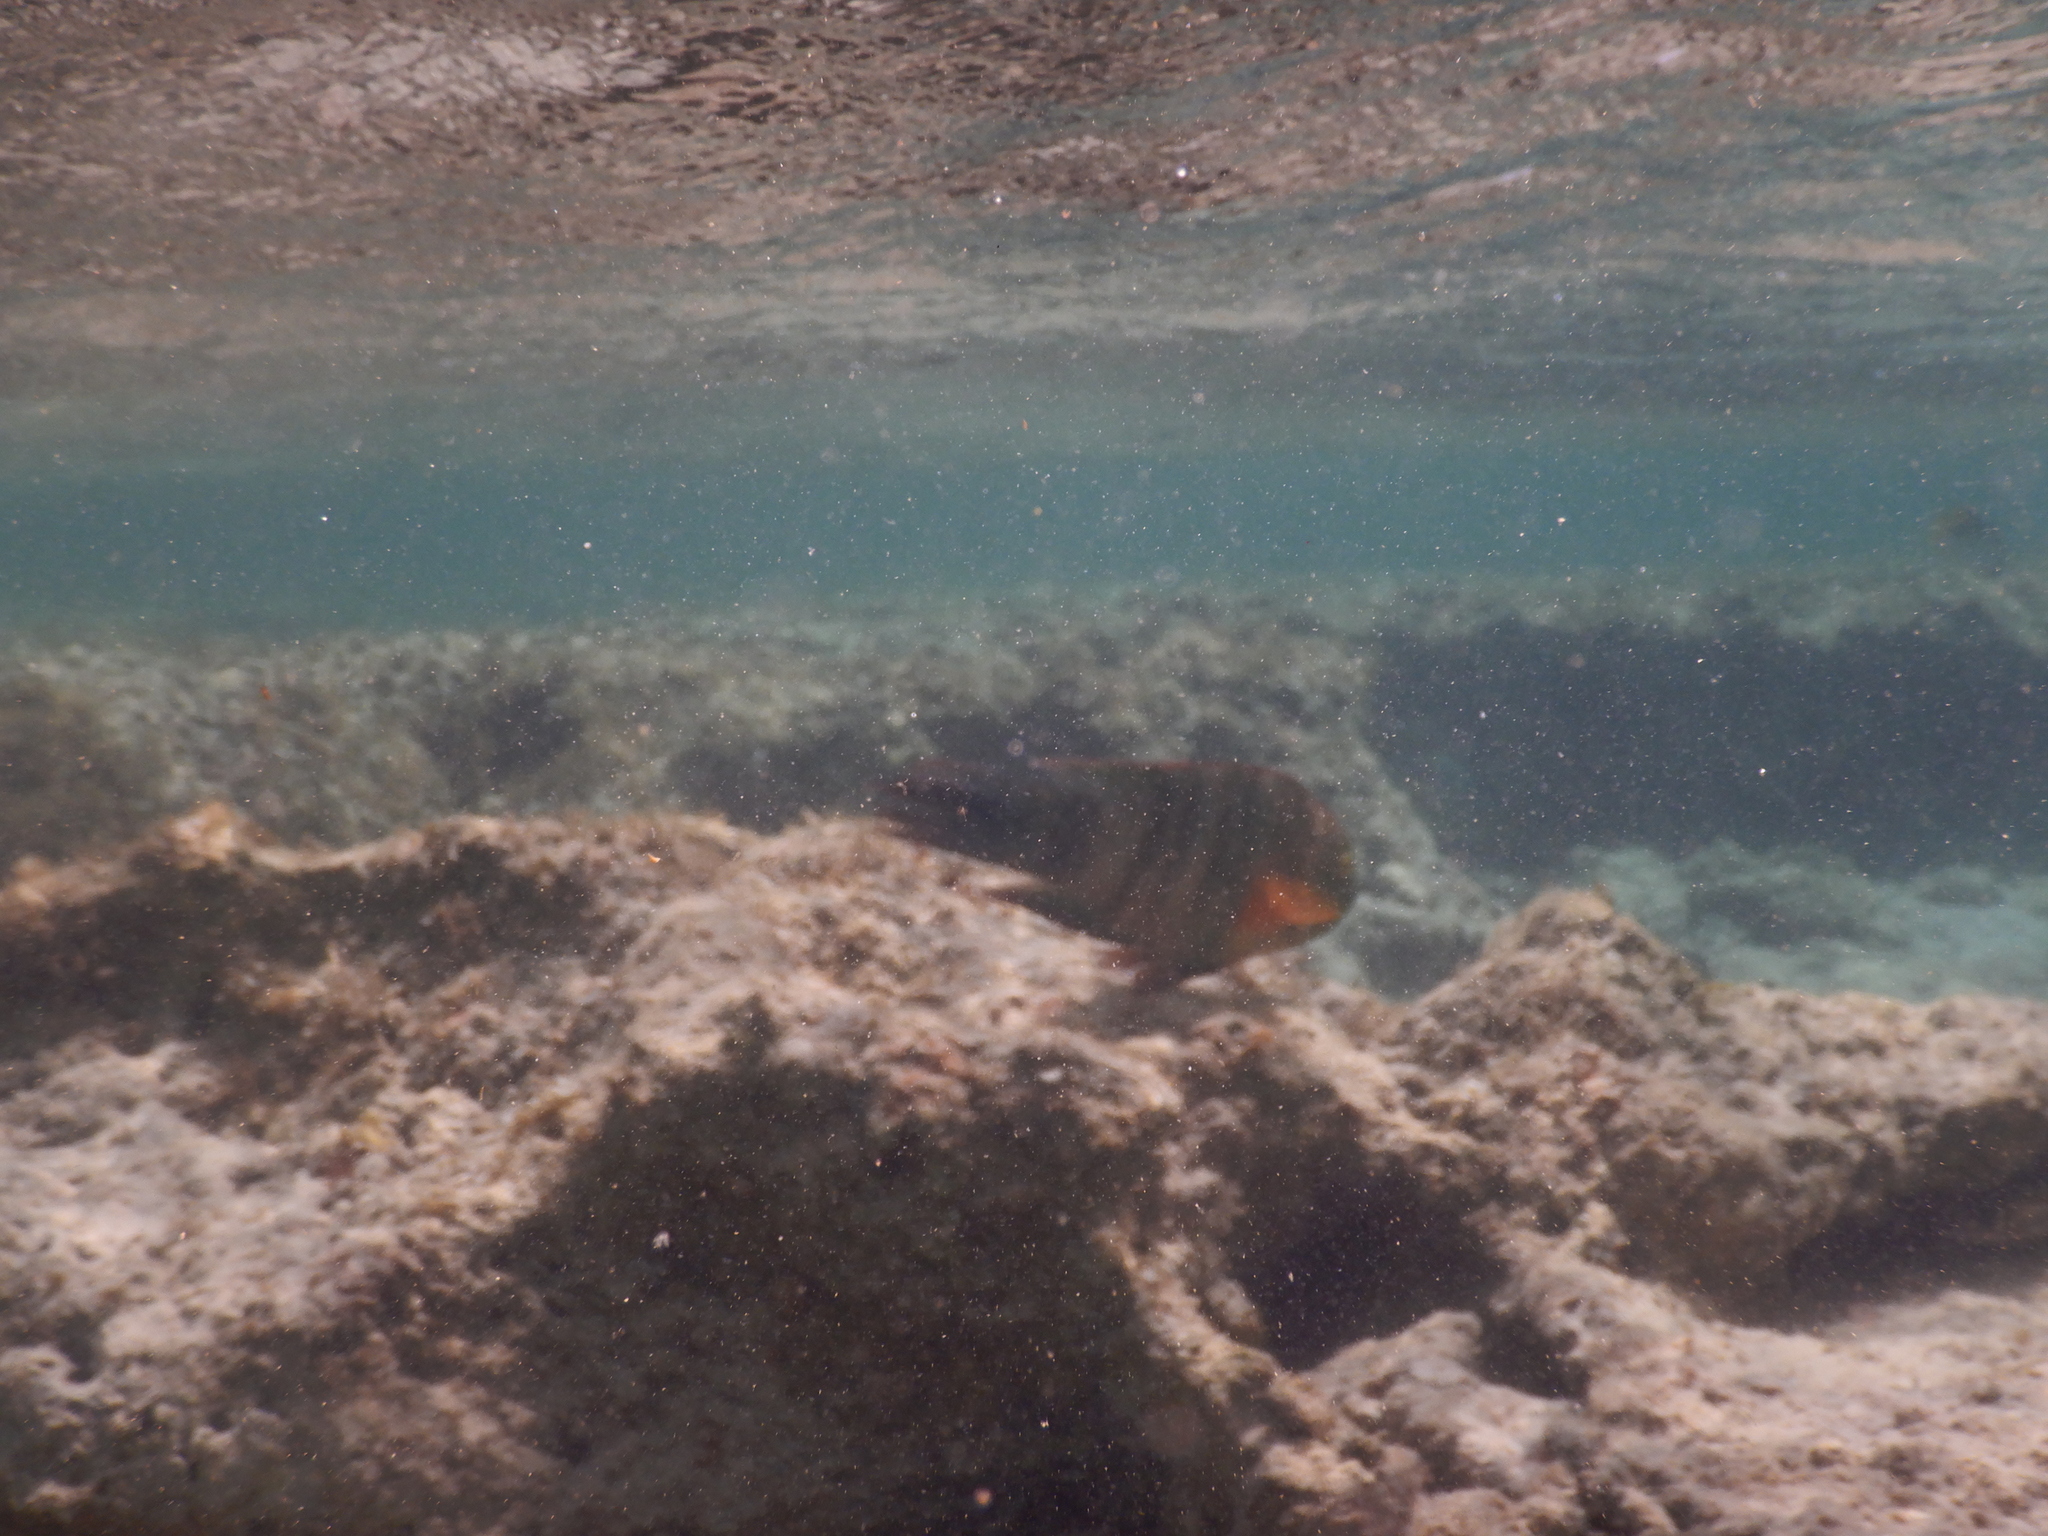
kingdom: Animalia
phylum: Chordata
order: Perciformes
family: Labridae
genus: Cheilinus
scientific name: Cheilinus lunulatus
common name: Broomtail wrasse
